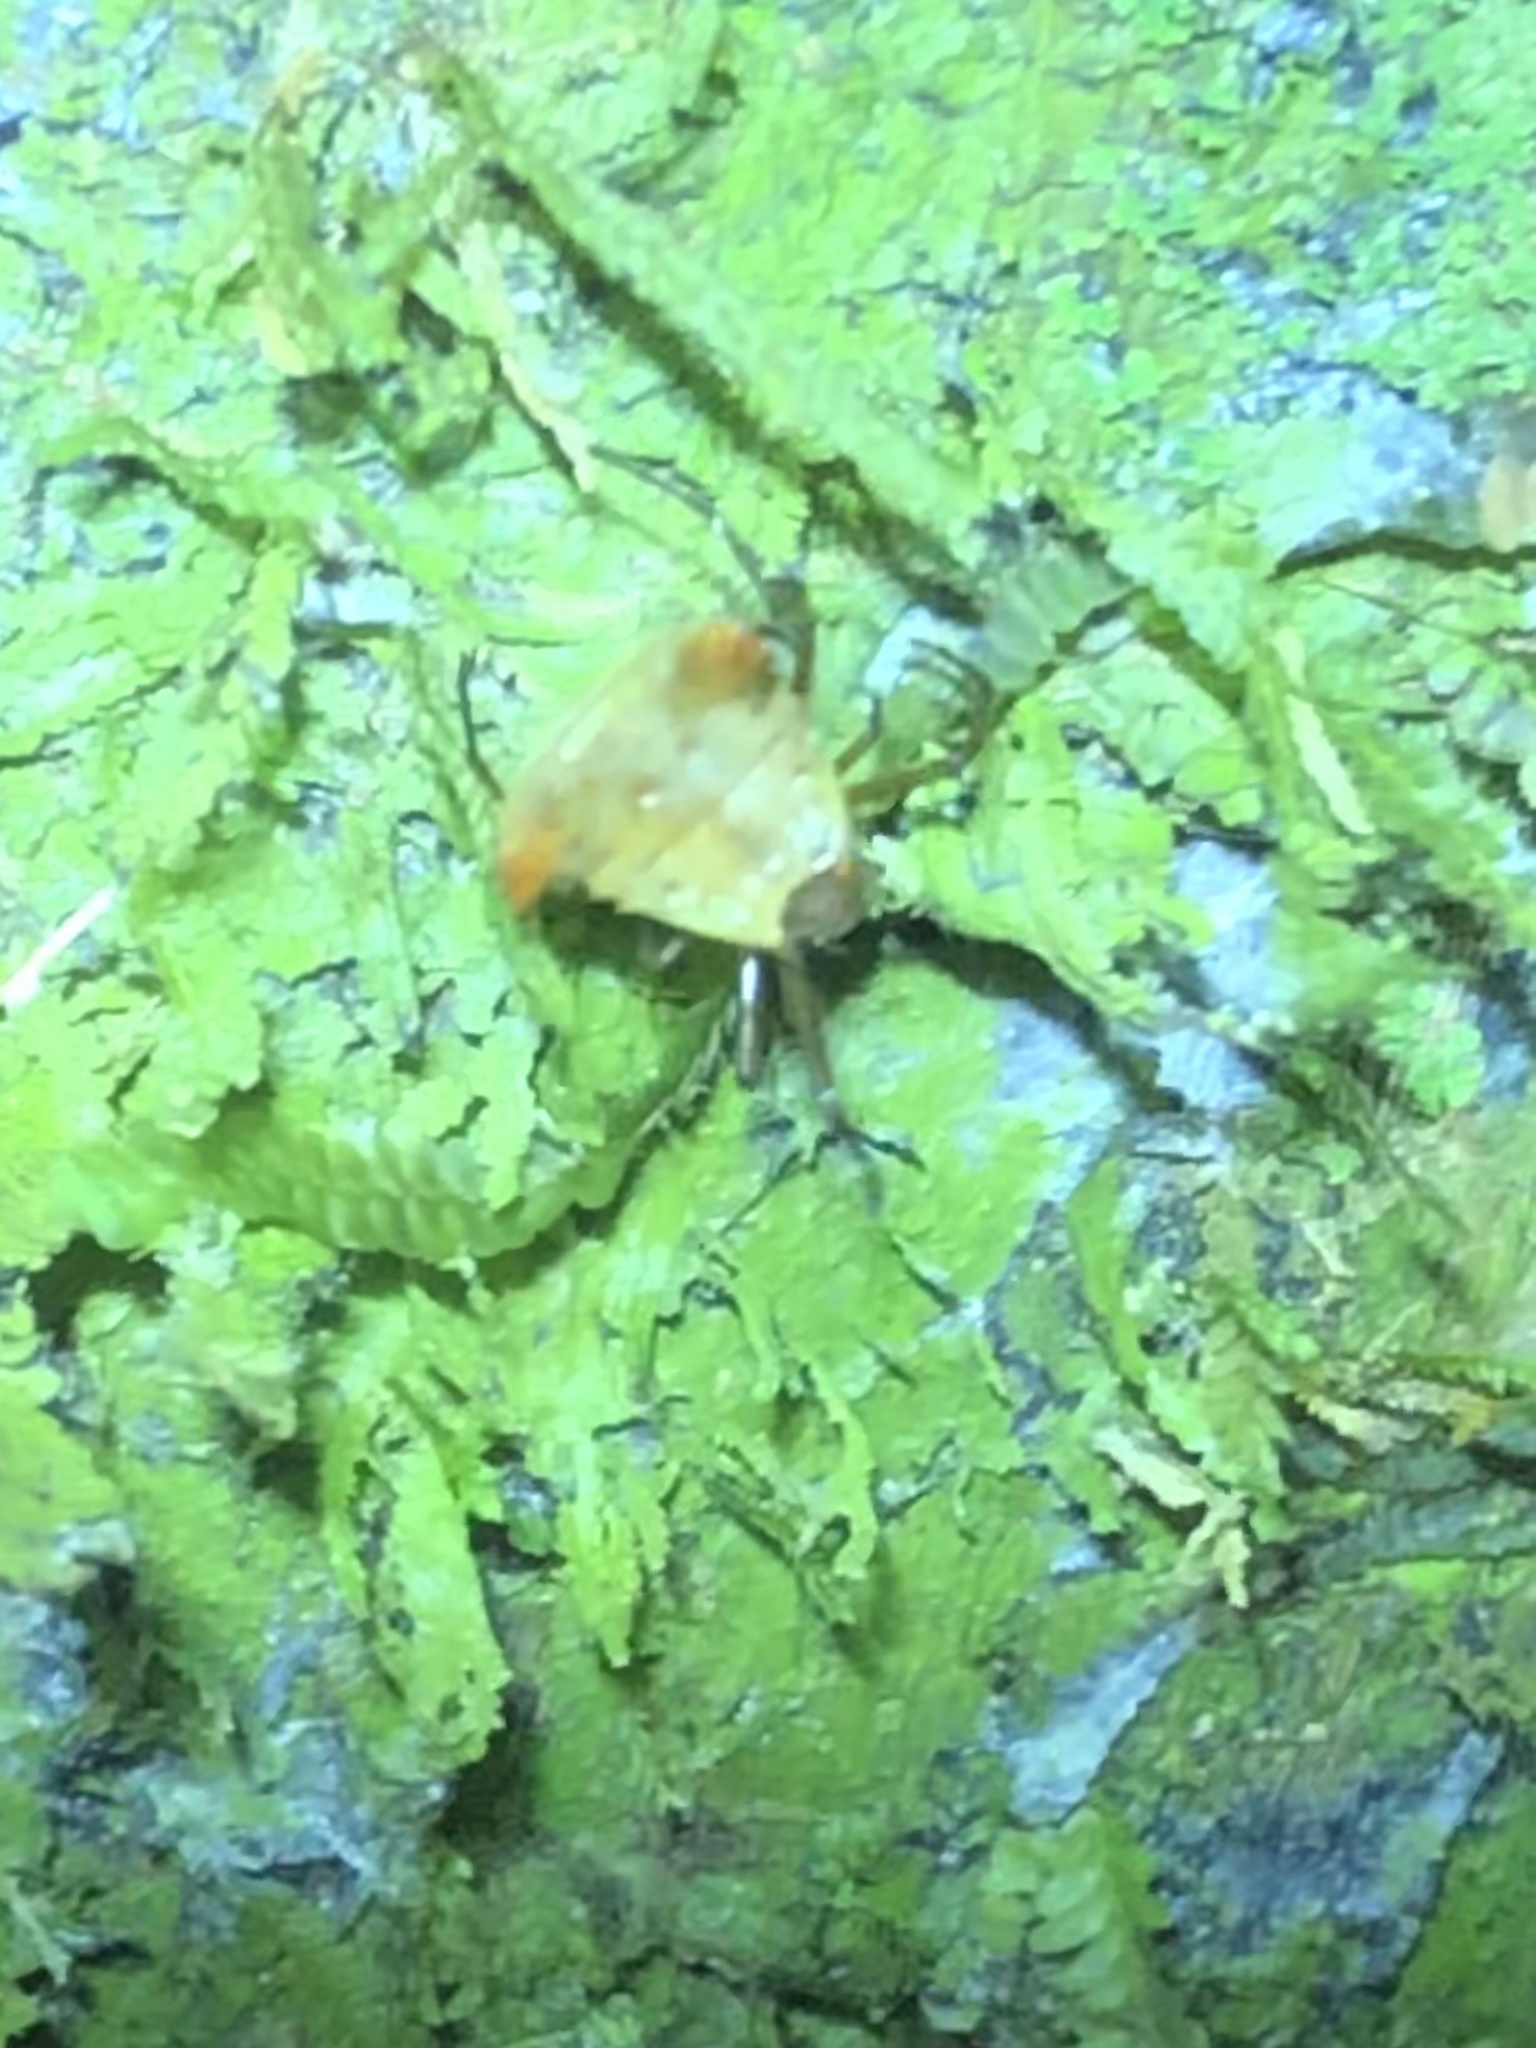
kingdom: Animalia
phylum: Arthropoda
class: Arachnida
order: Araneae
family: Araneidae
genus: Micrathena
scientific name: Micrathena huanuco
